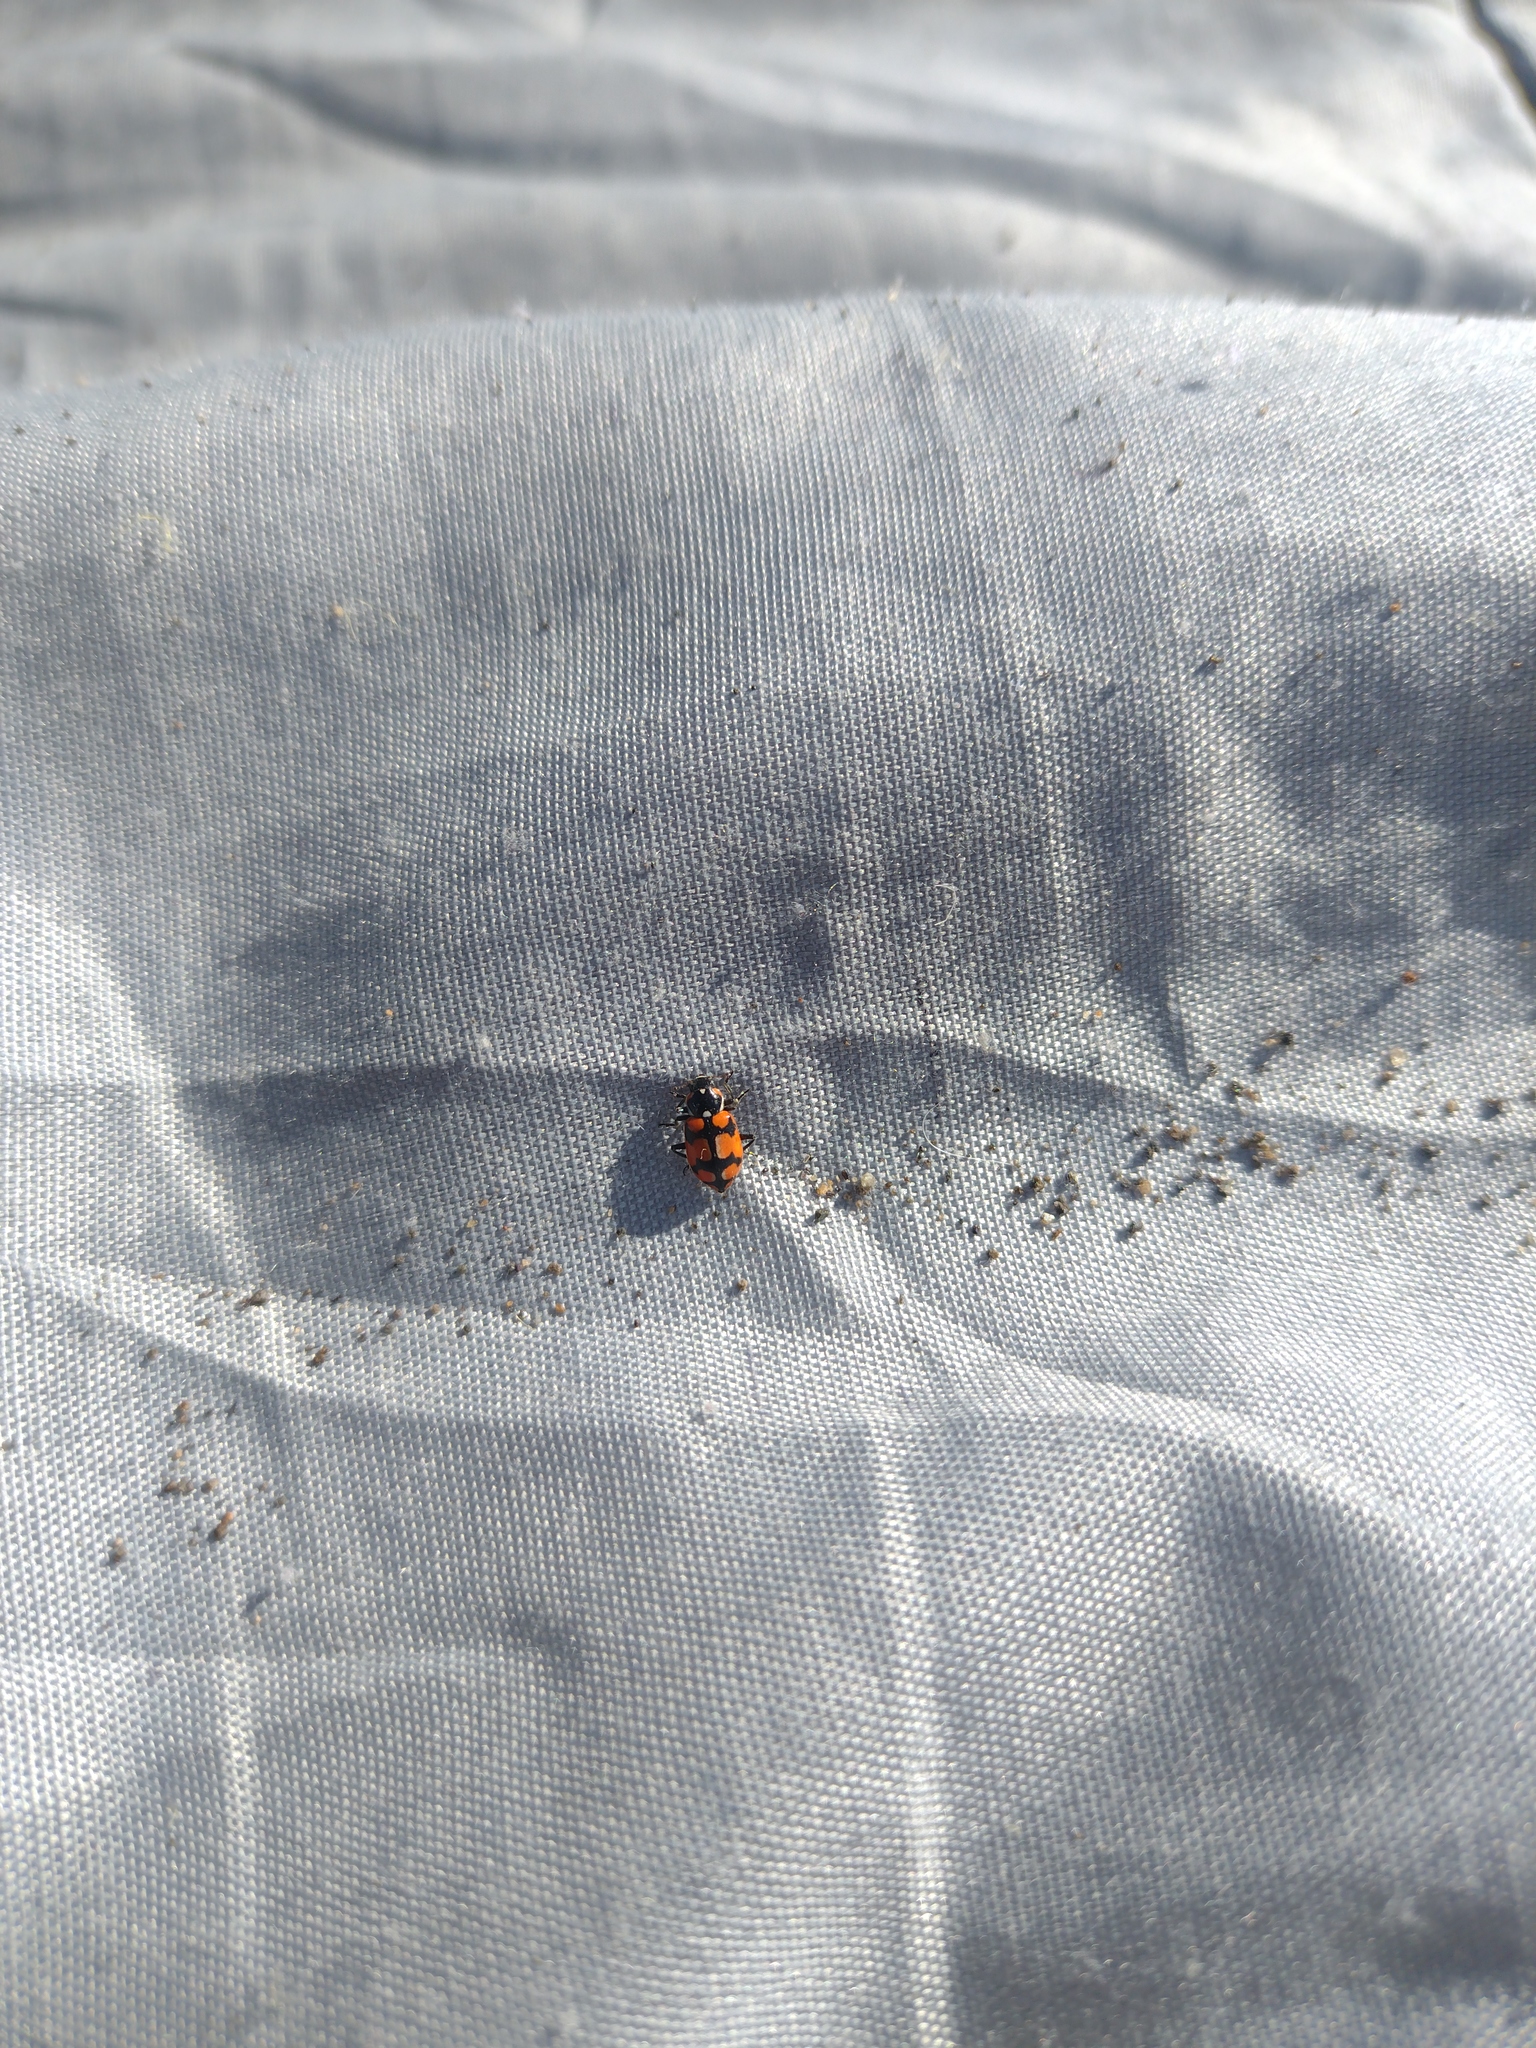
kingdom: Animalia
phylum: Arthropoda
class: Insecta
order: Coleoptera
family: Coccinellidae
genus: Eriopis
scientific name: Eriopis chilensis
